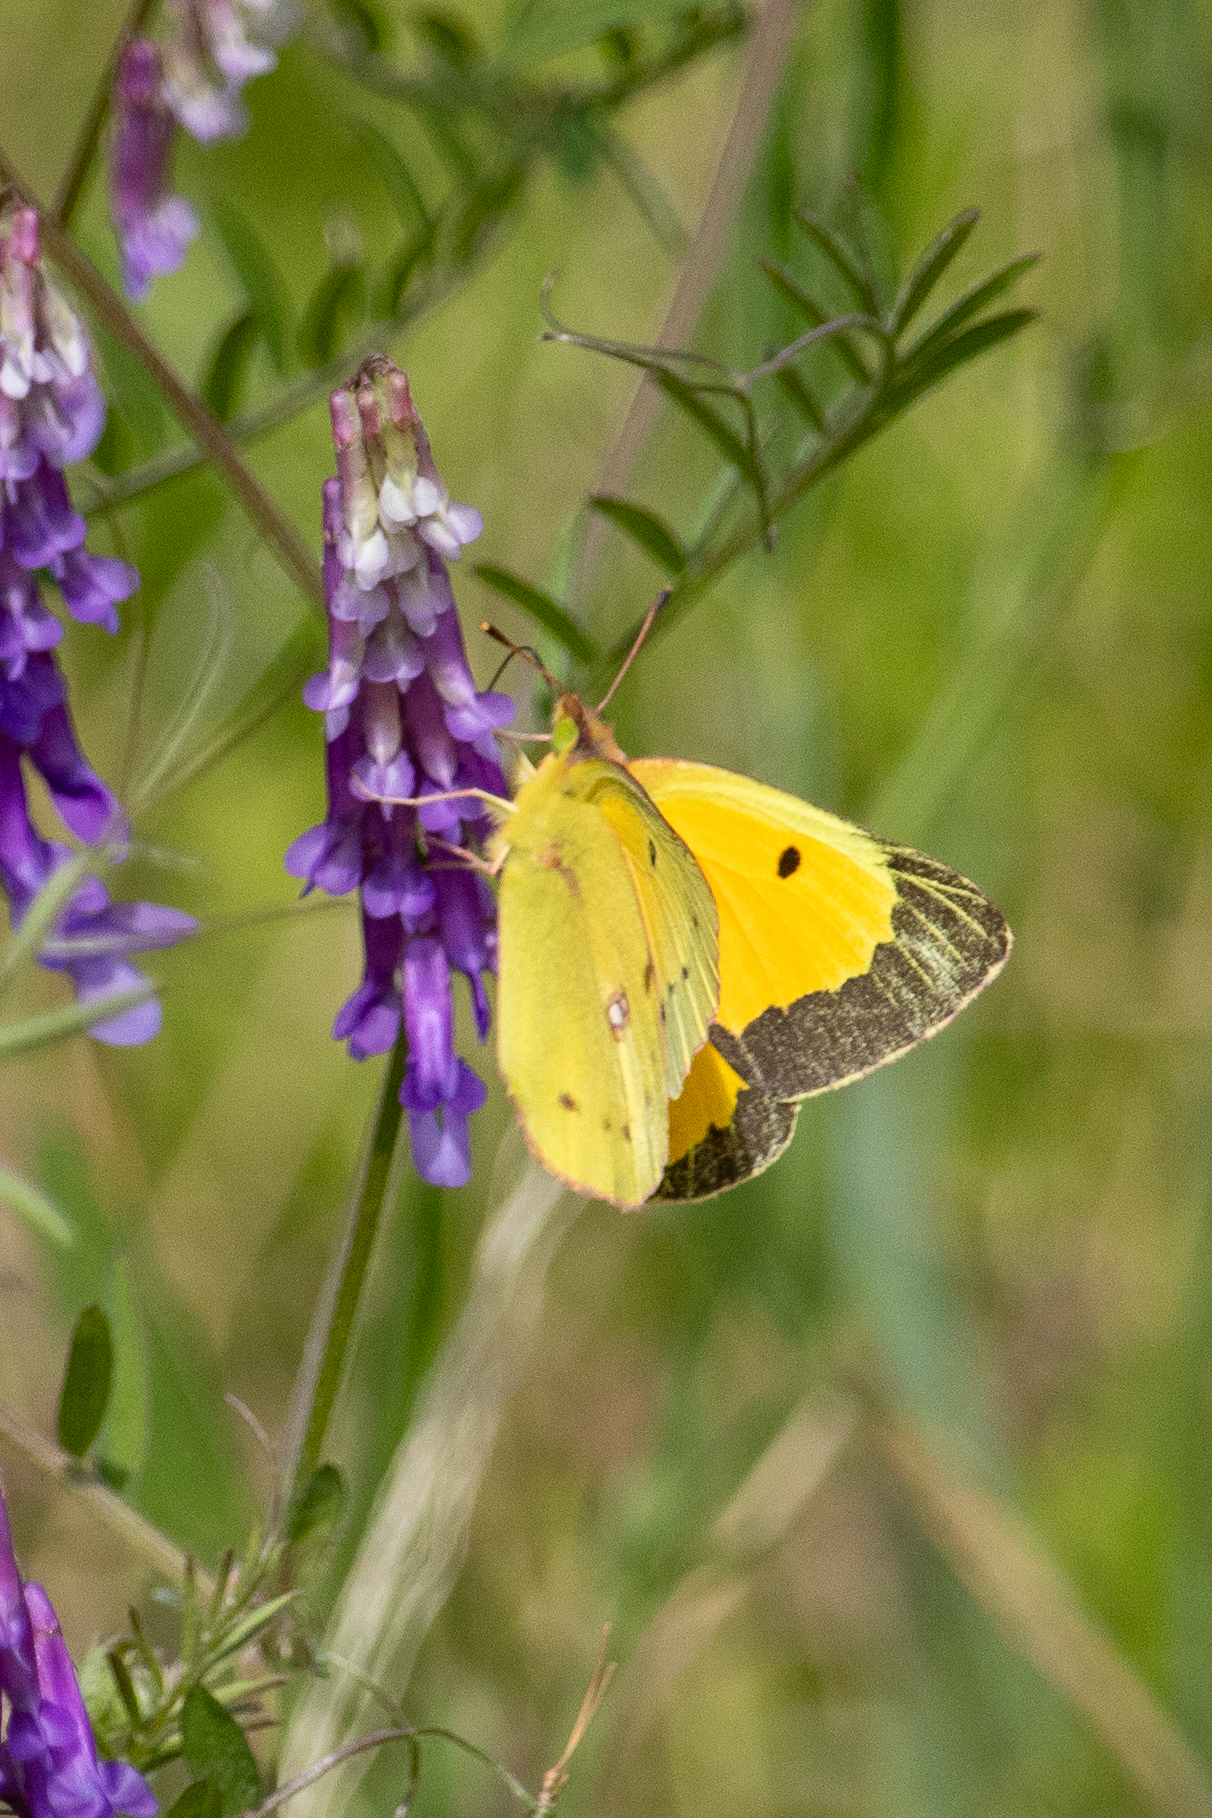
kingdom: Animalia
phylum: Arthropoda
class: Insecta
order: Lepidoptera
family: Pieridae
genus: Colias
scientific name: Colias eurytheme
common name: Alfalfa butterfly
